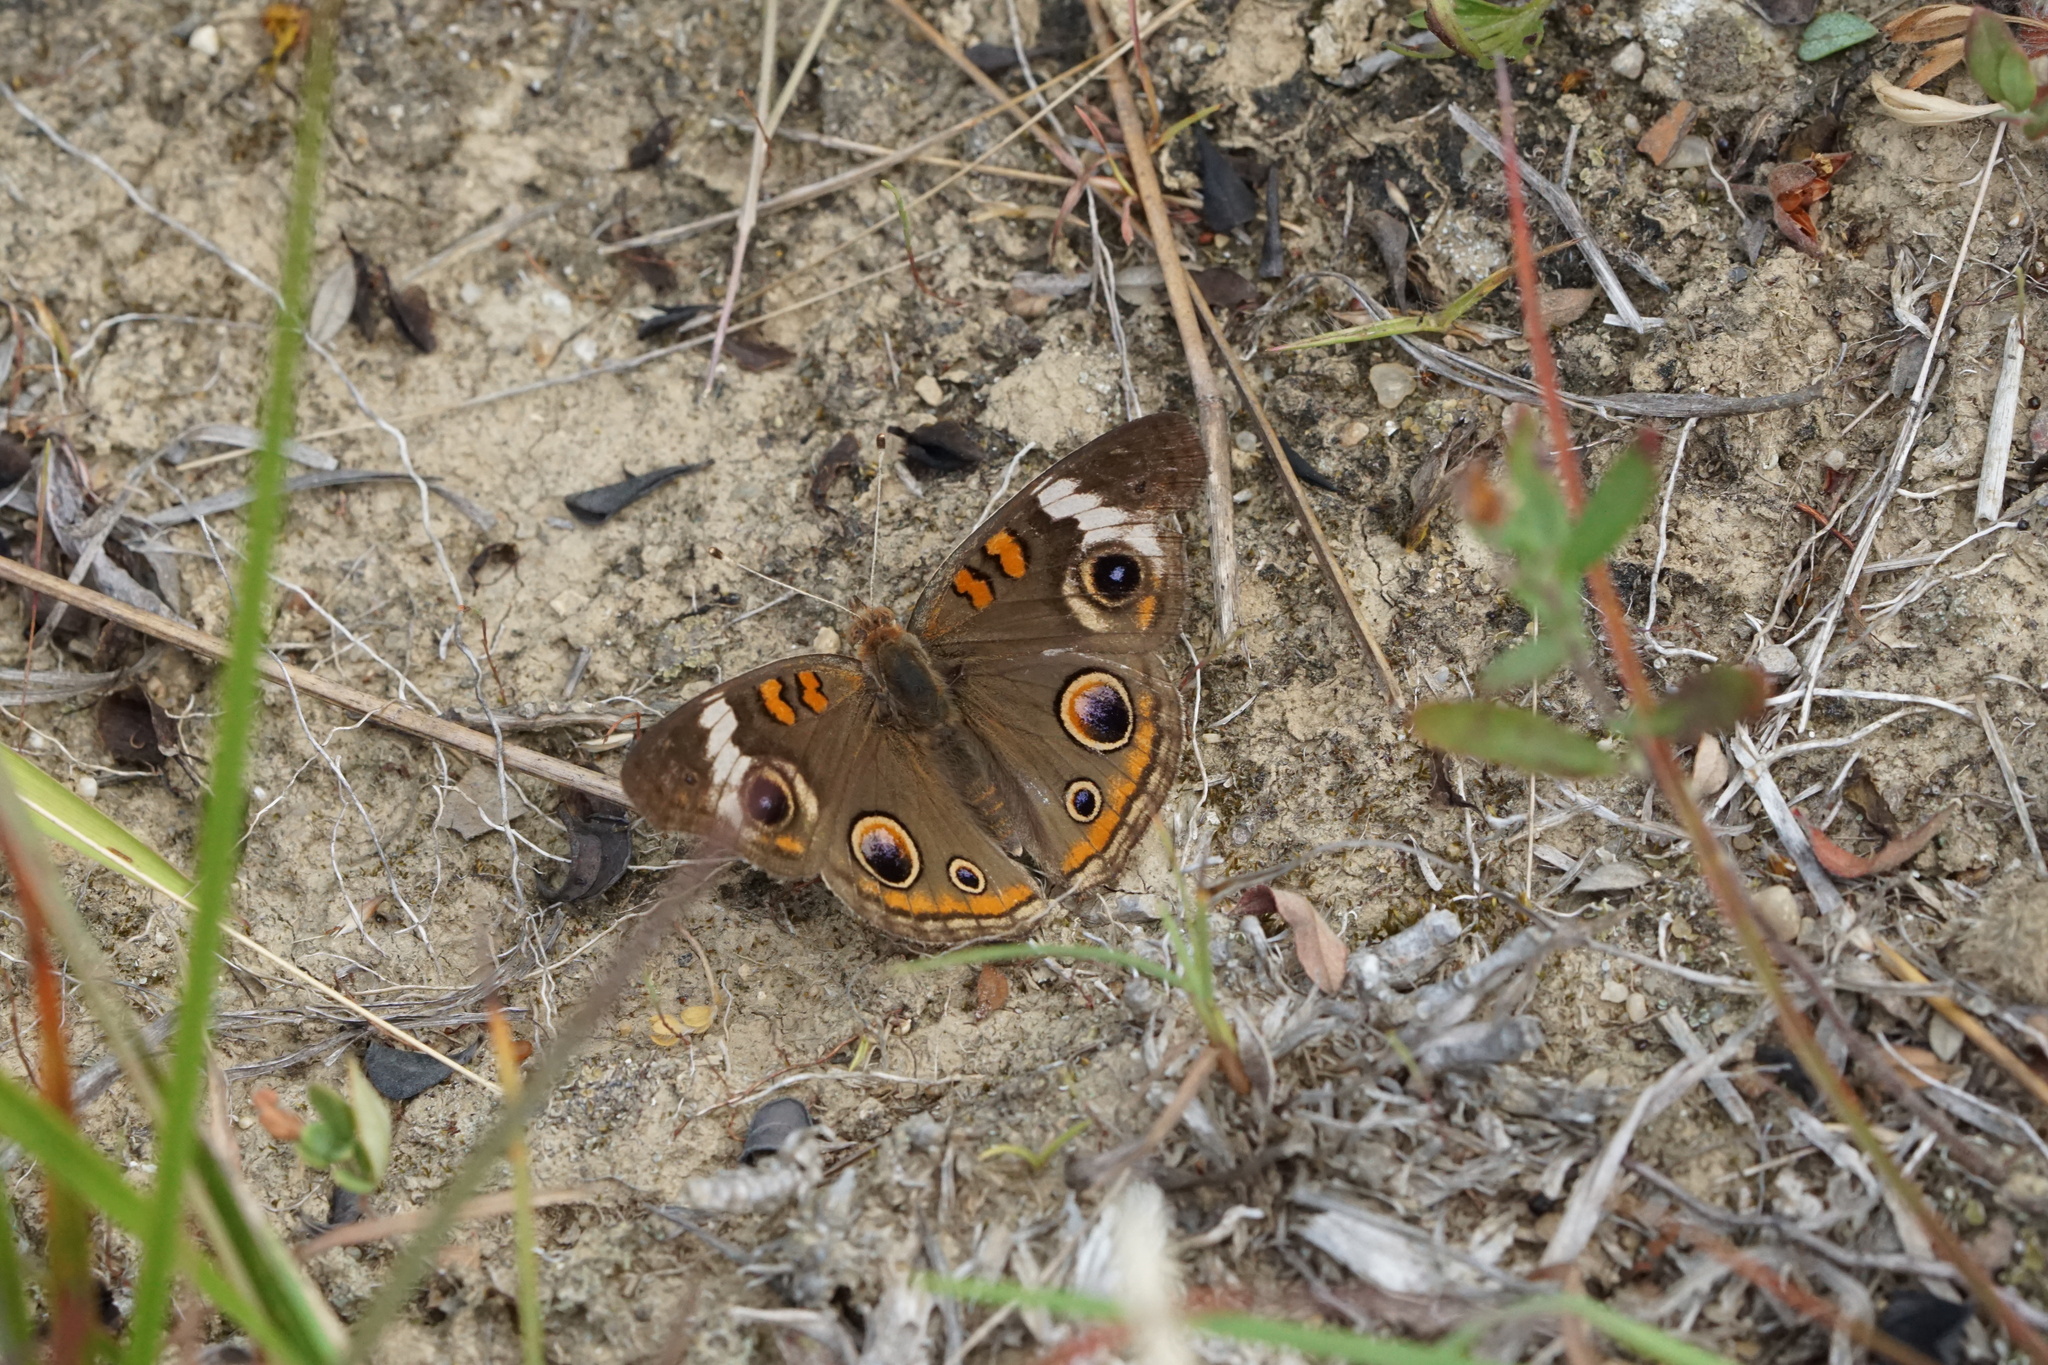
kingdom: Animalia
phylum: Arthropoda
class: Insecta
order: Lepidoptera
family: Nymphalidae
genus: Junonia
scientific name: Junonia coenia
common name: Common buckeye
